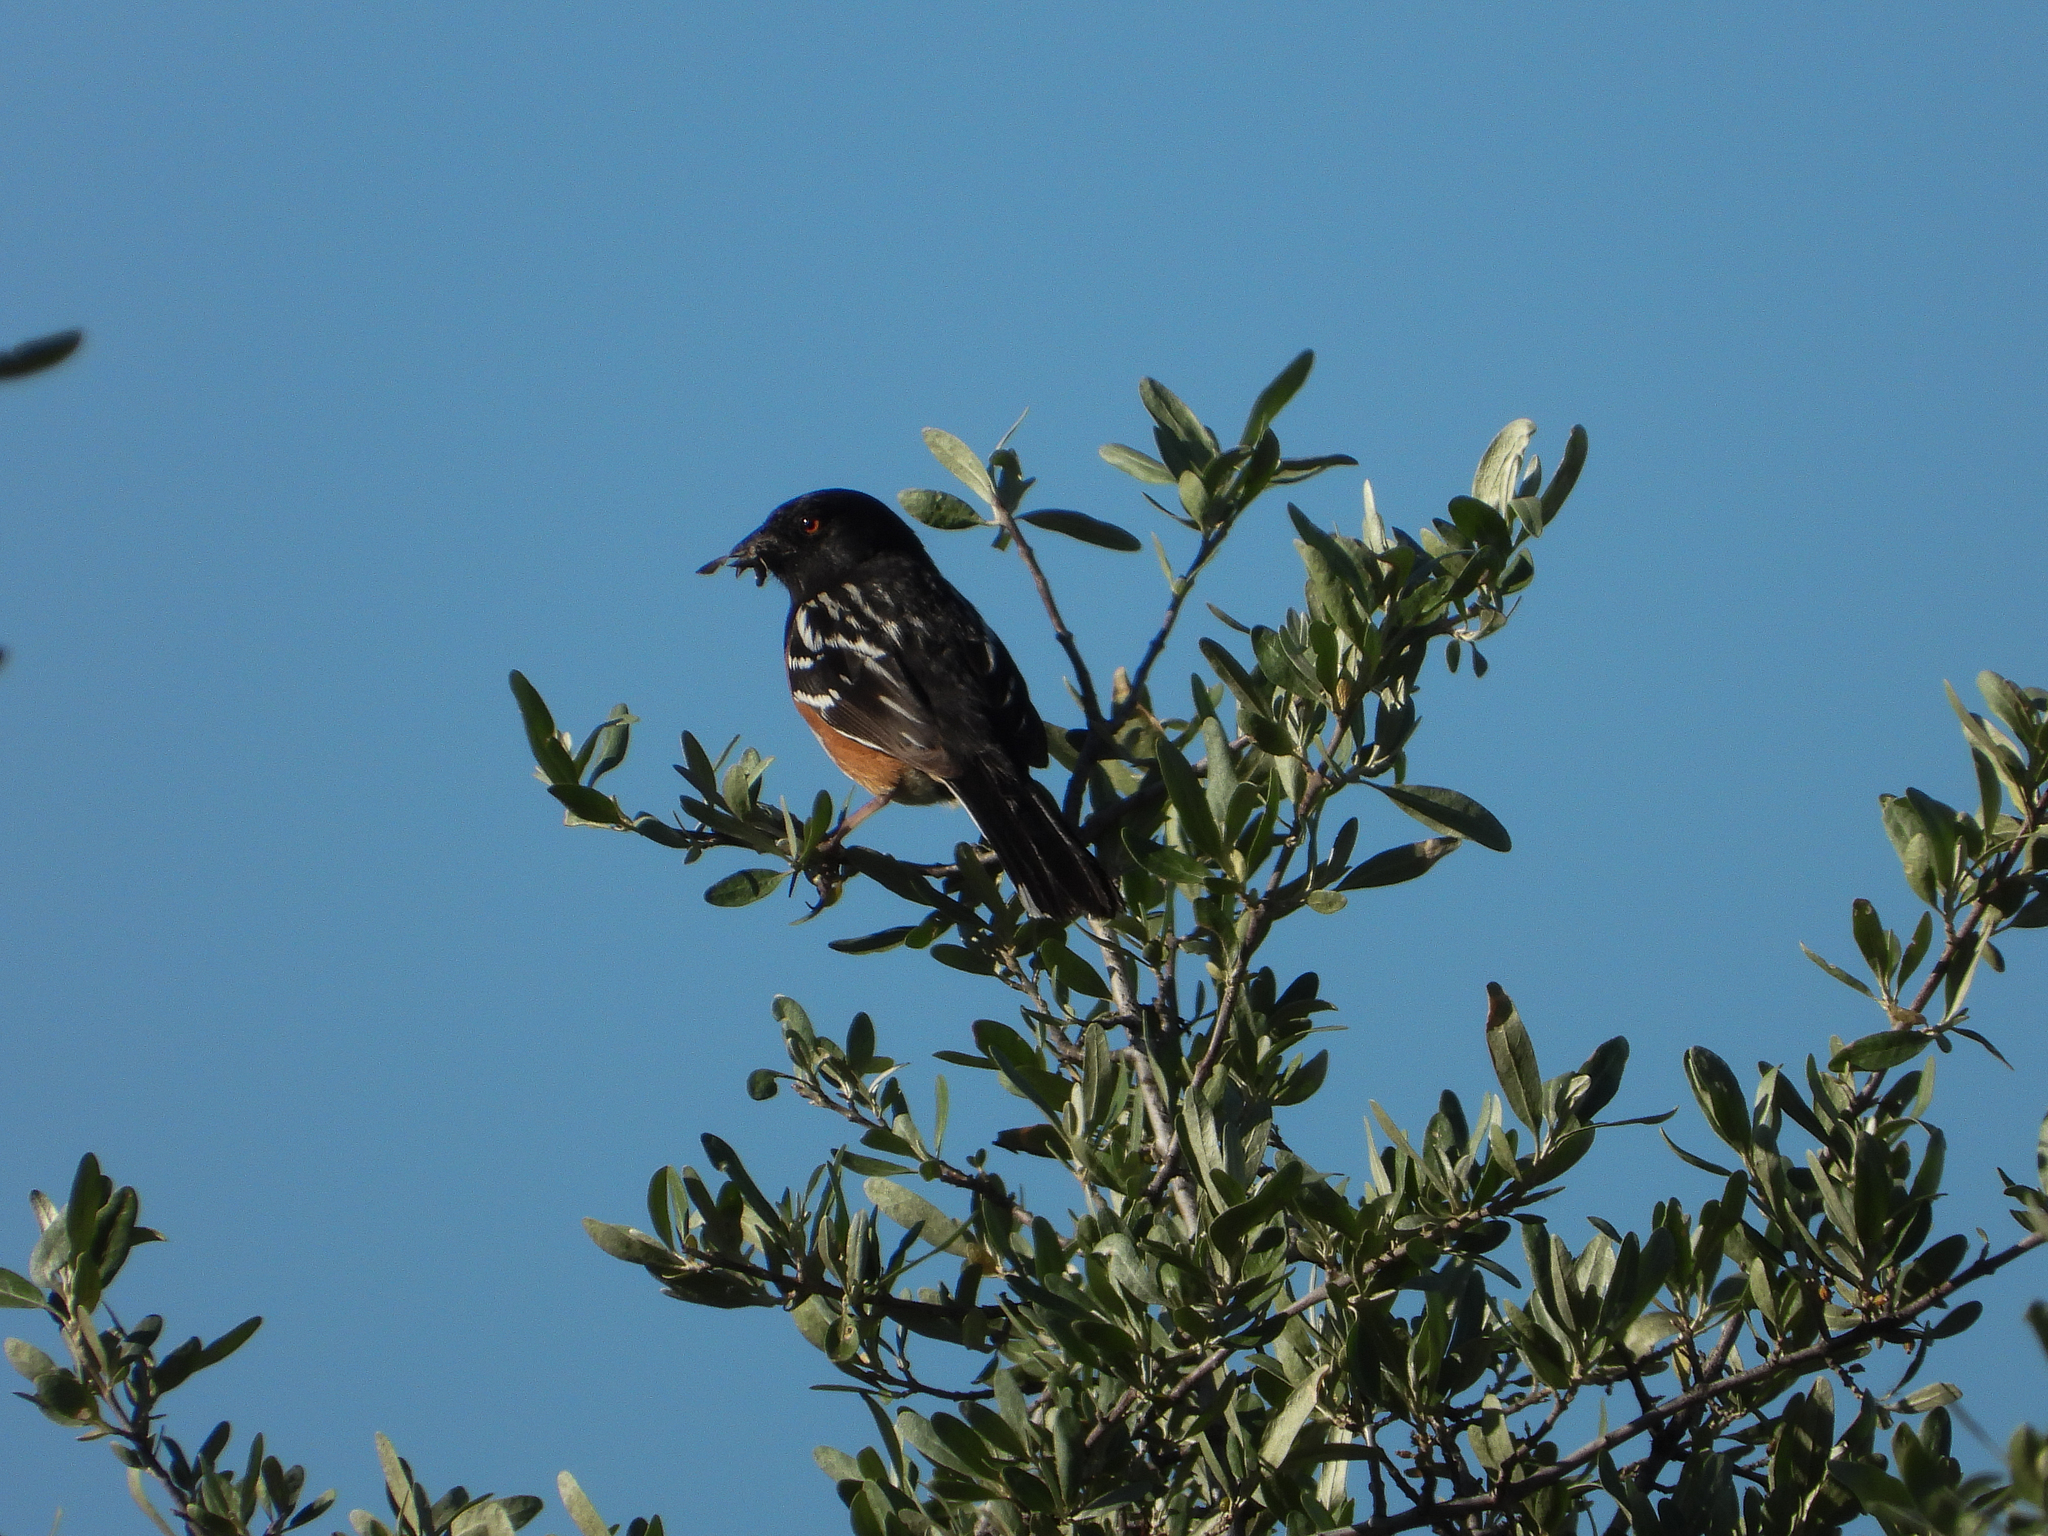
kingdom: Animalia
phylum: Chordata
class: Aves
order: Passeriformes
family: Passerellidae
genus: Pipilo
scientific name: Pipilo maculatus
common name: Spotted towhee
